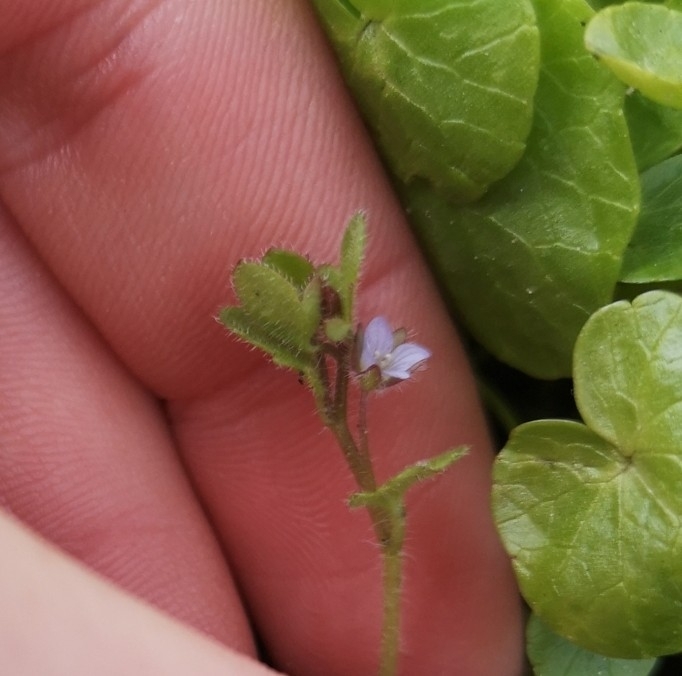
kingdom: Plantae
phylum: Tracheophyta
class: Magnoliopsida
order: Lamiales
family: Plantaginaceae
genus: Veronica
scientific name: Veronica sublobata
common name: False ivy-leaved speedwell
